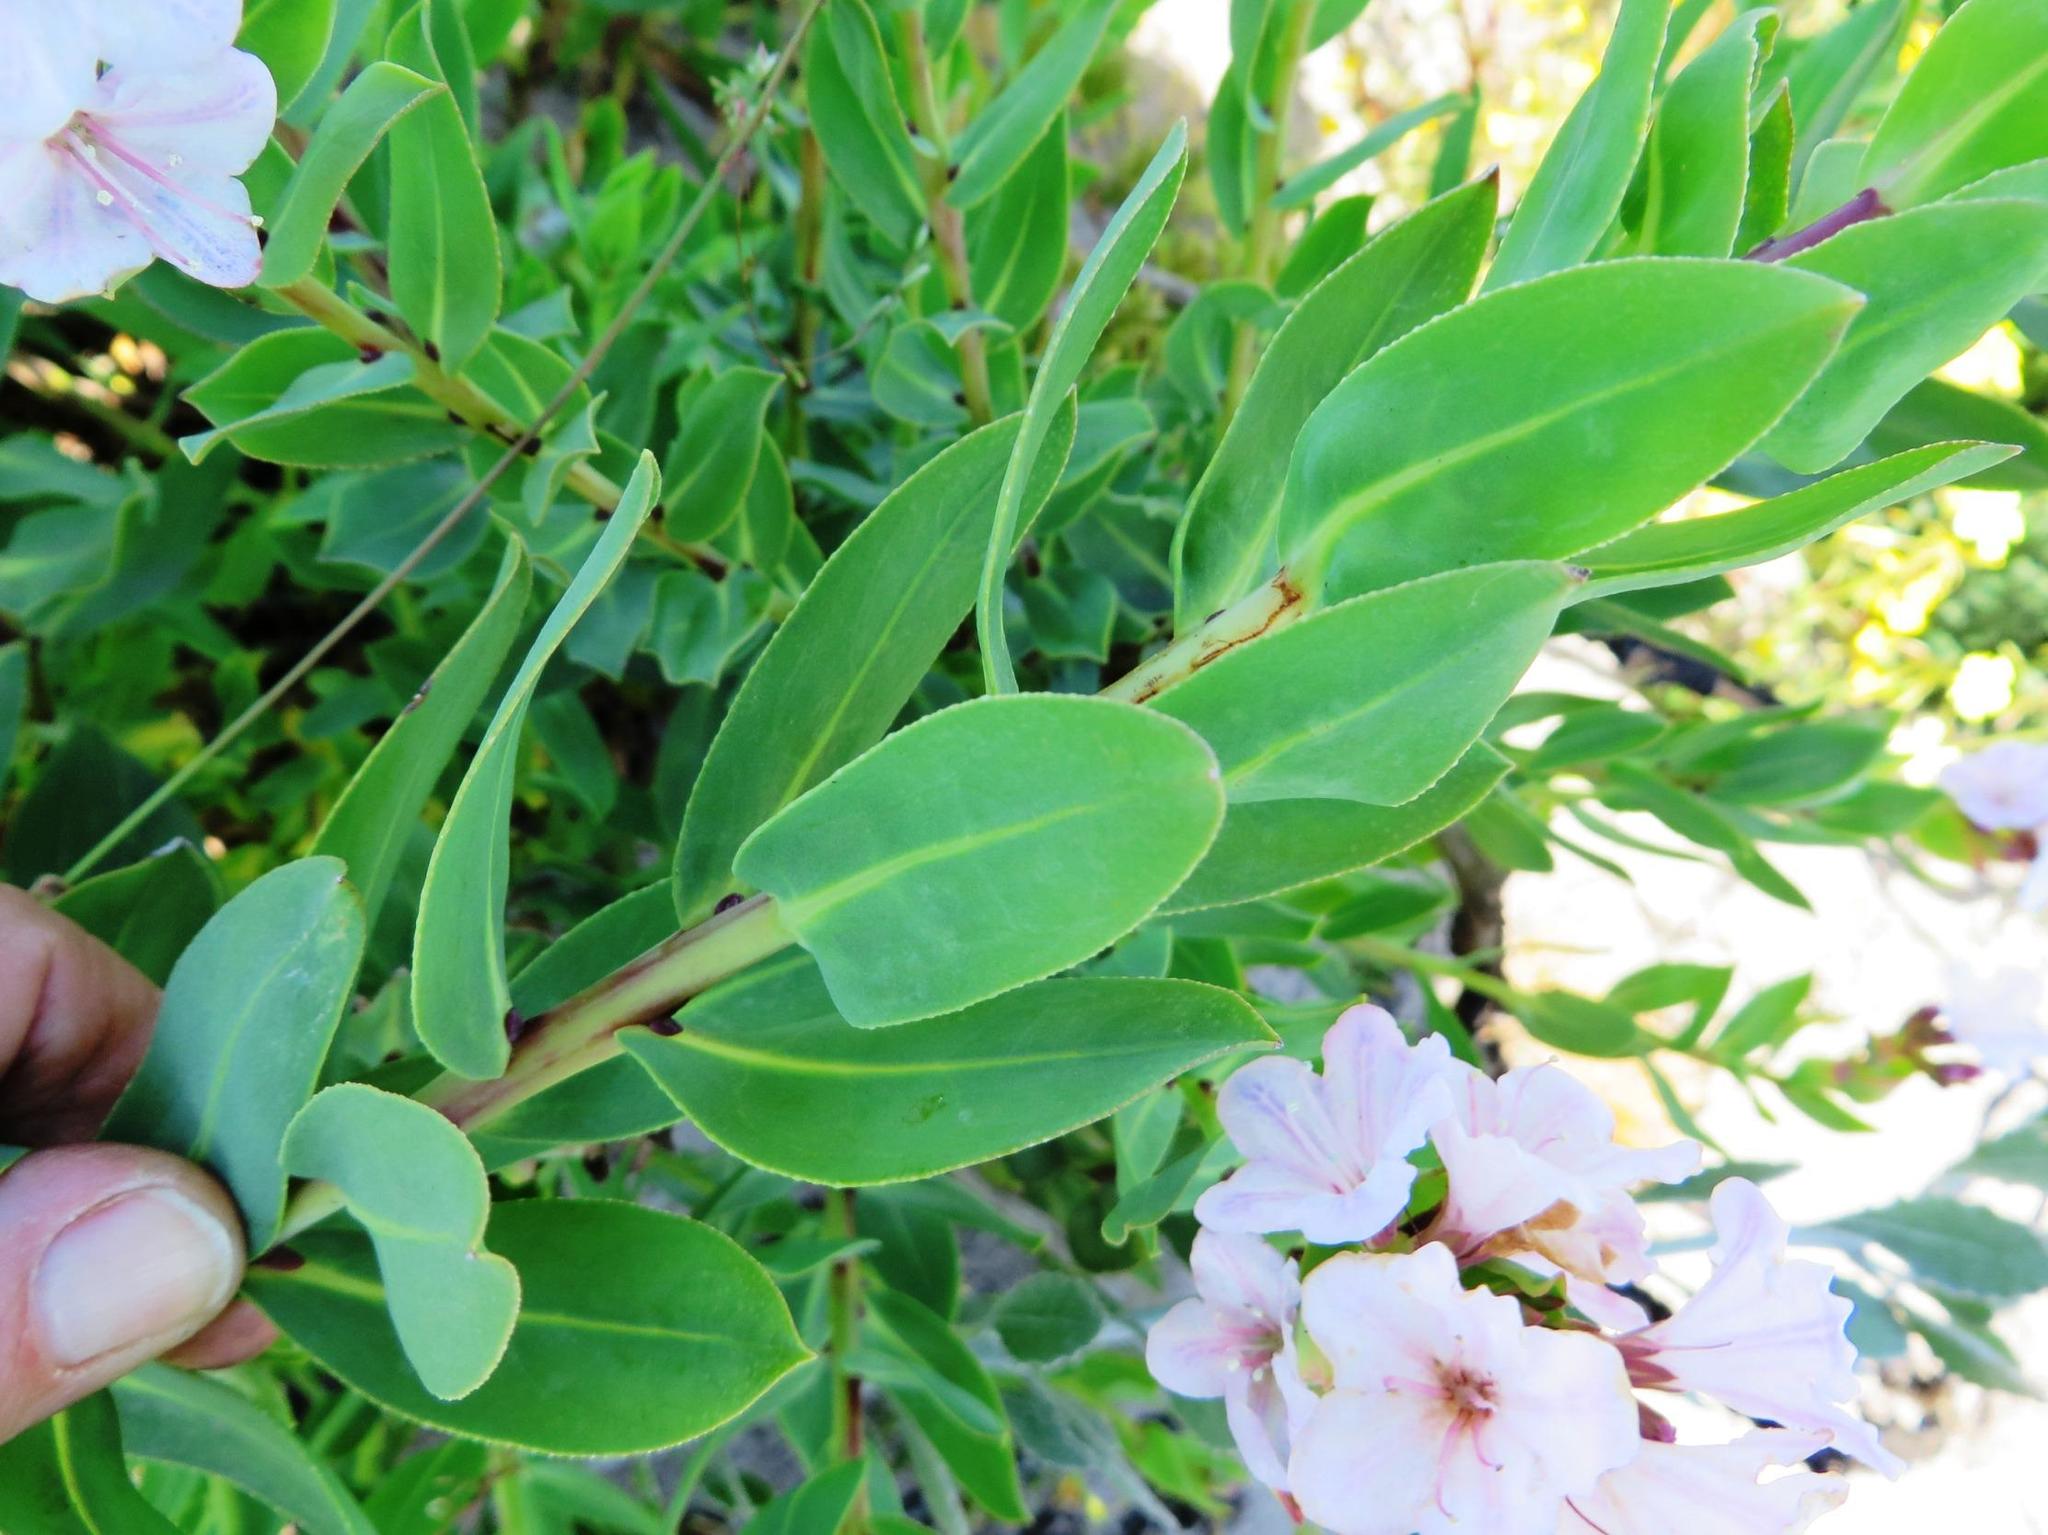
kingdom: Plantae
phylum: Tracheophyta
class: Magnoliopsida
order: Boraginales
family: Boraginaceae
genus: Lobostemon
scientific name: Lobostemon glaucophyllus
